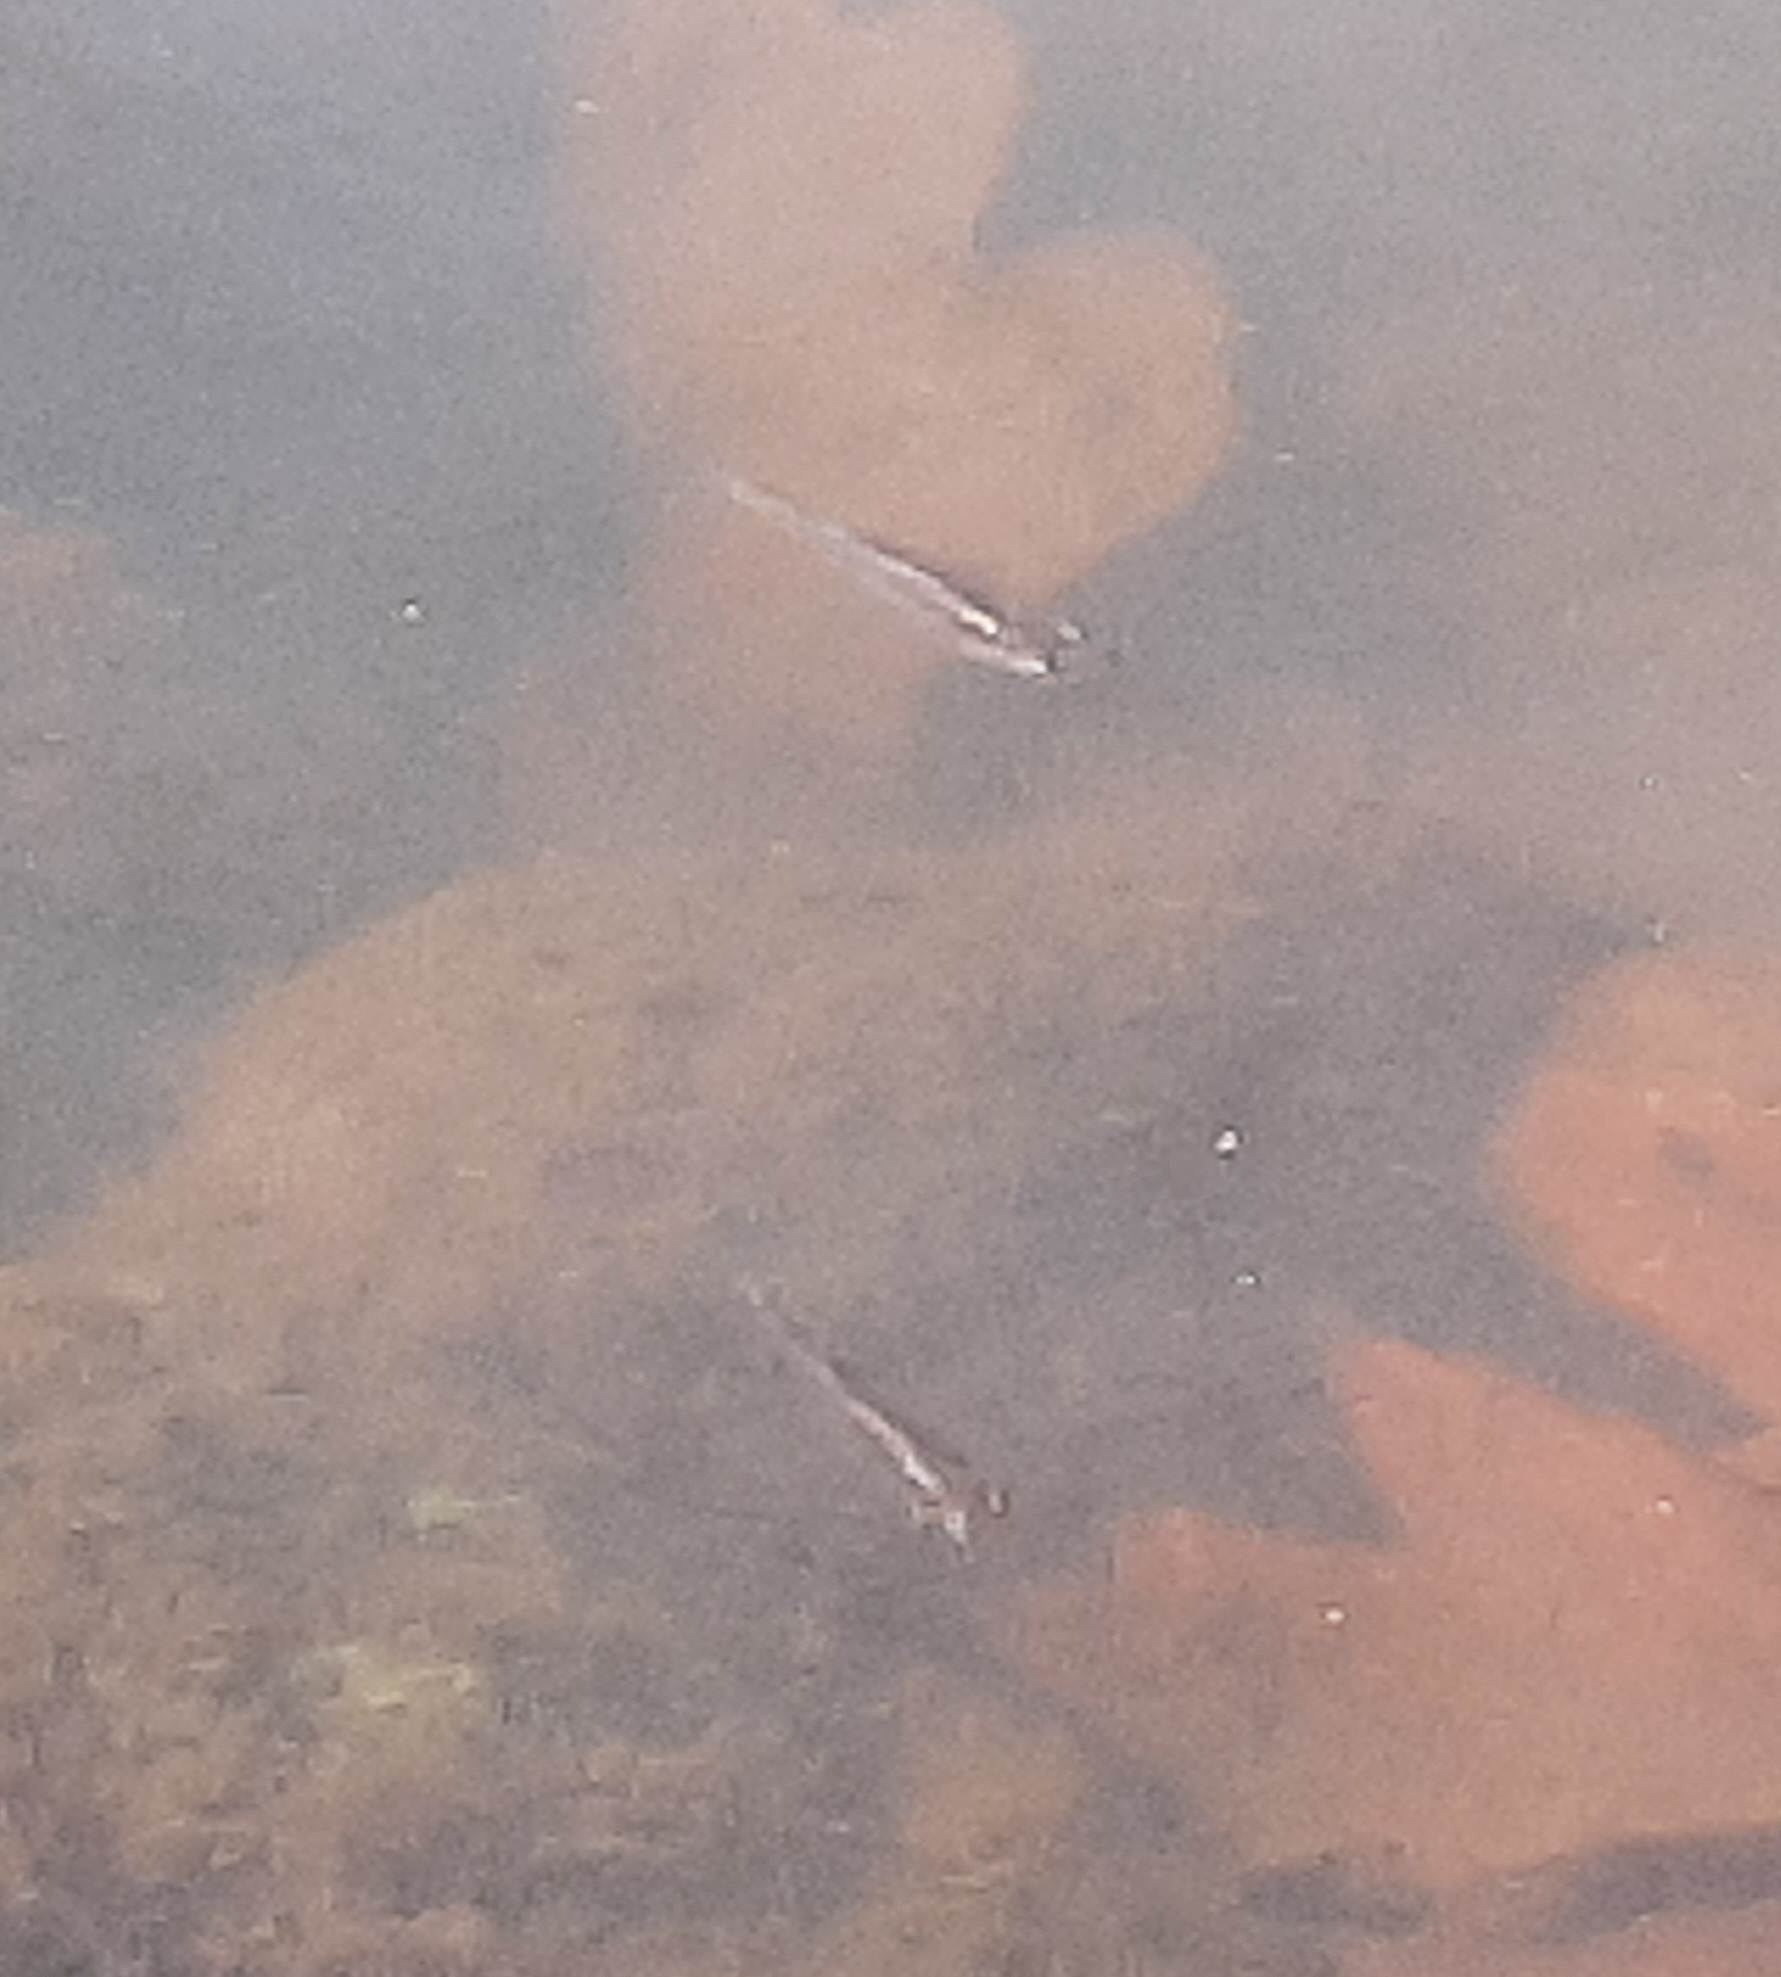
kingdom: Animalia
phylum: Chordata
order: Cyprinodontiformes
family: Poeciliidae
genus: Gambusia
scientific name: Gambusia affinis
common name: Mosquitofish
